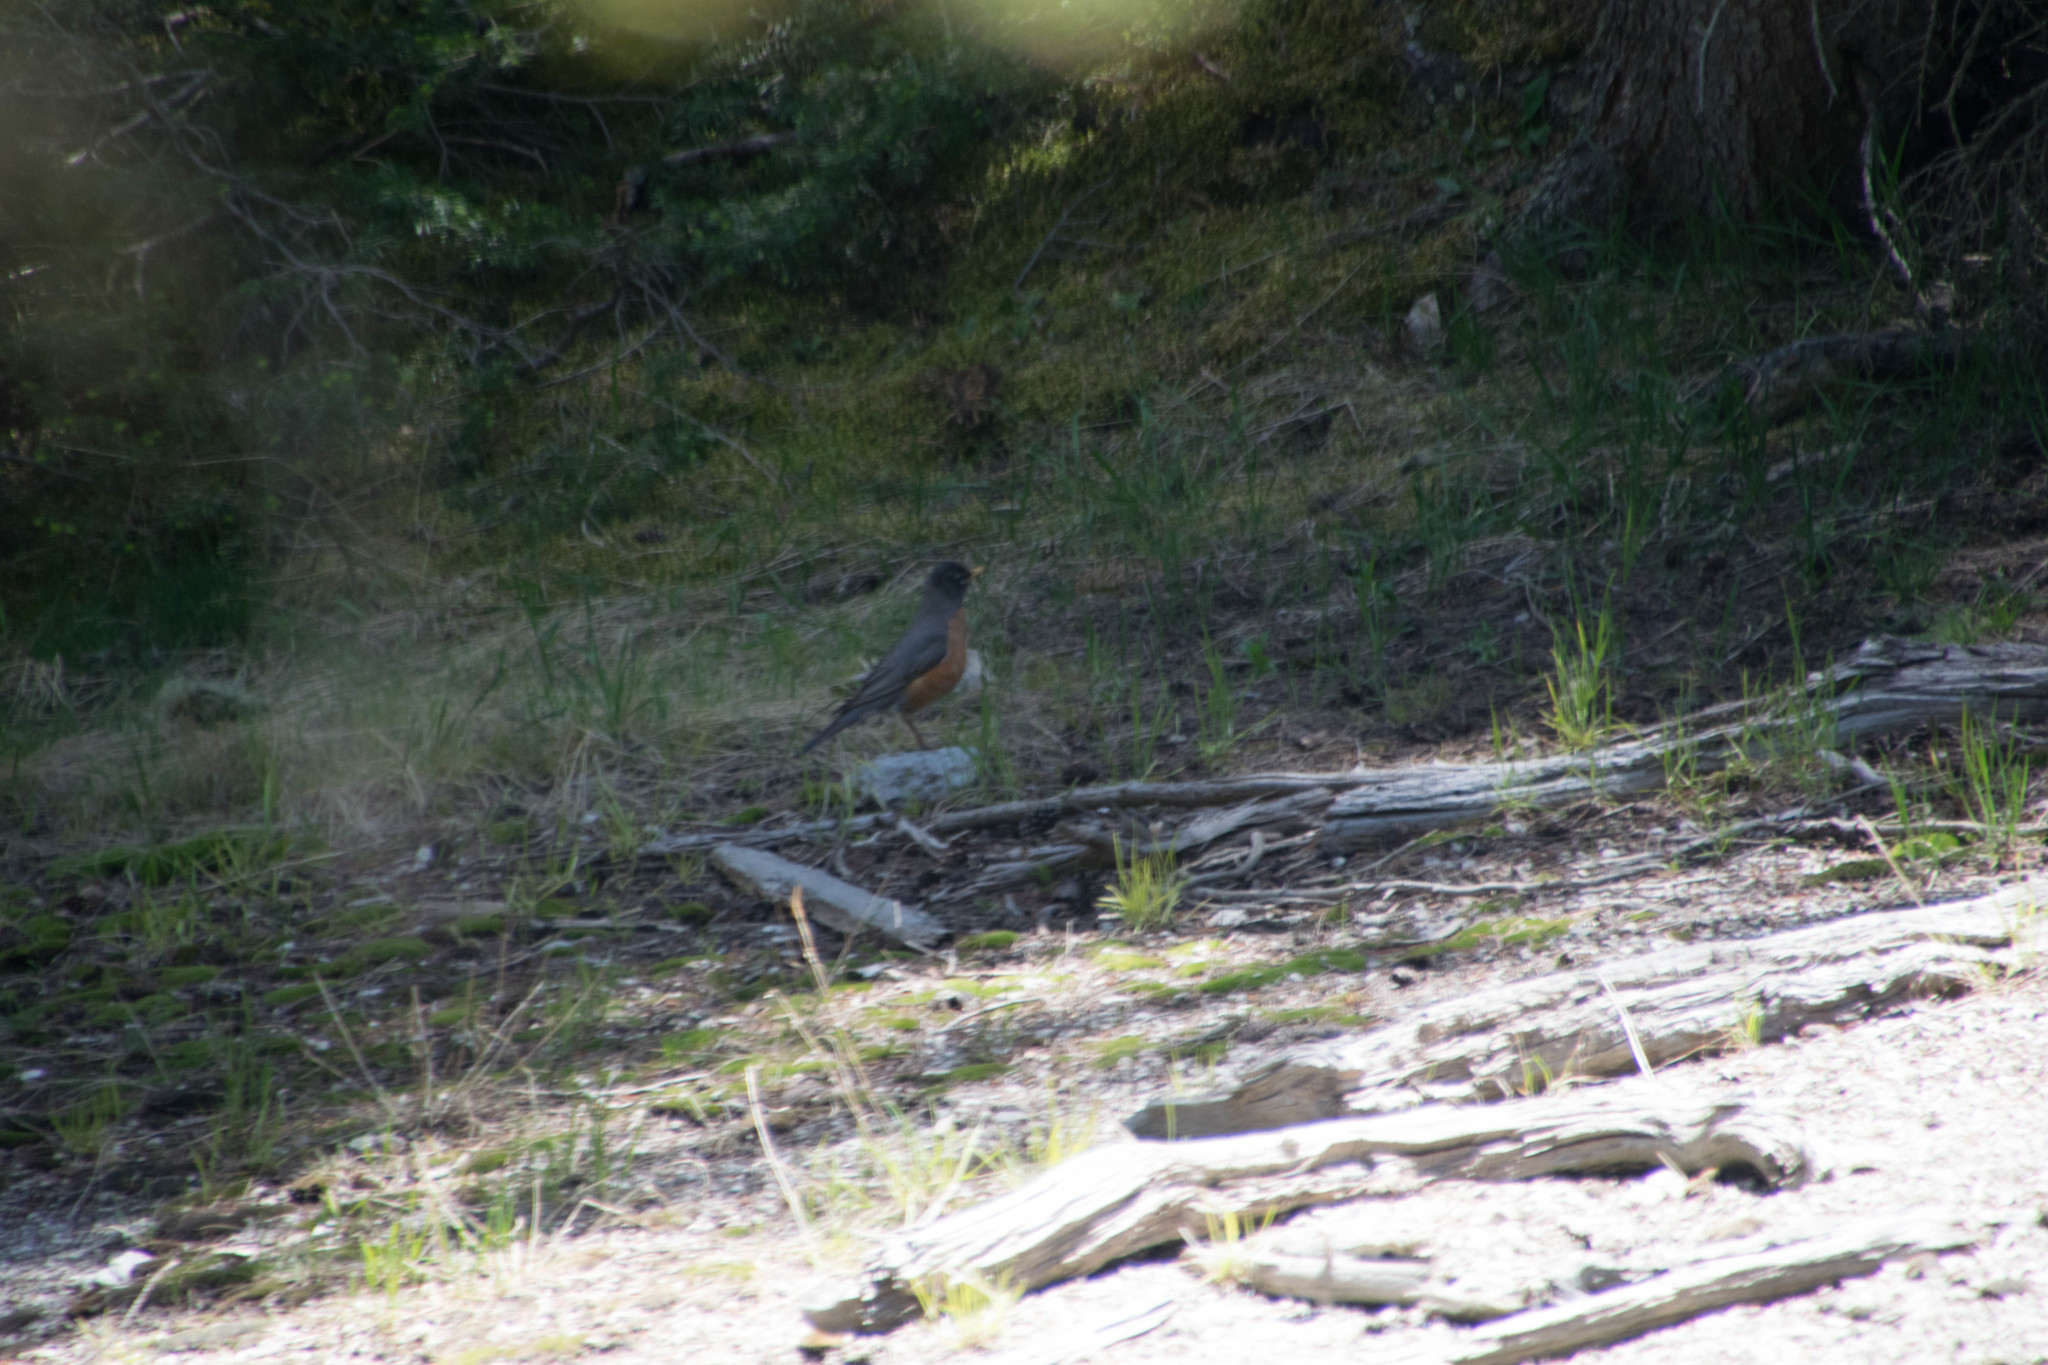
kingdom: Animalia
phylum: Chordata
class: Aves
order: Passeriformes
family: Turdidae
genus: Turdus
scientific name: Turdus migratorius
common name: American robin
